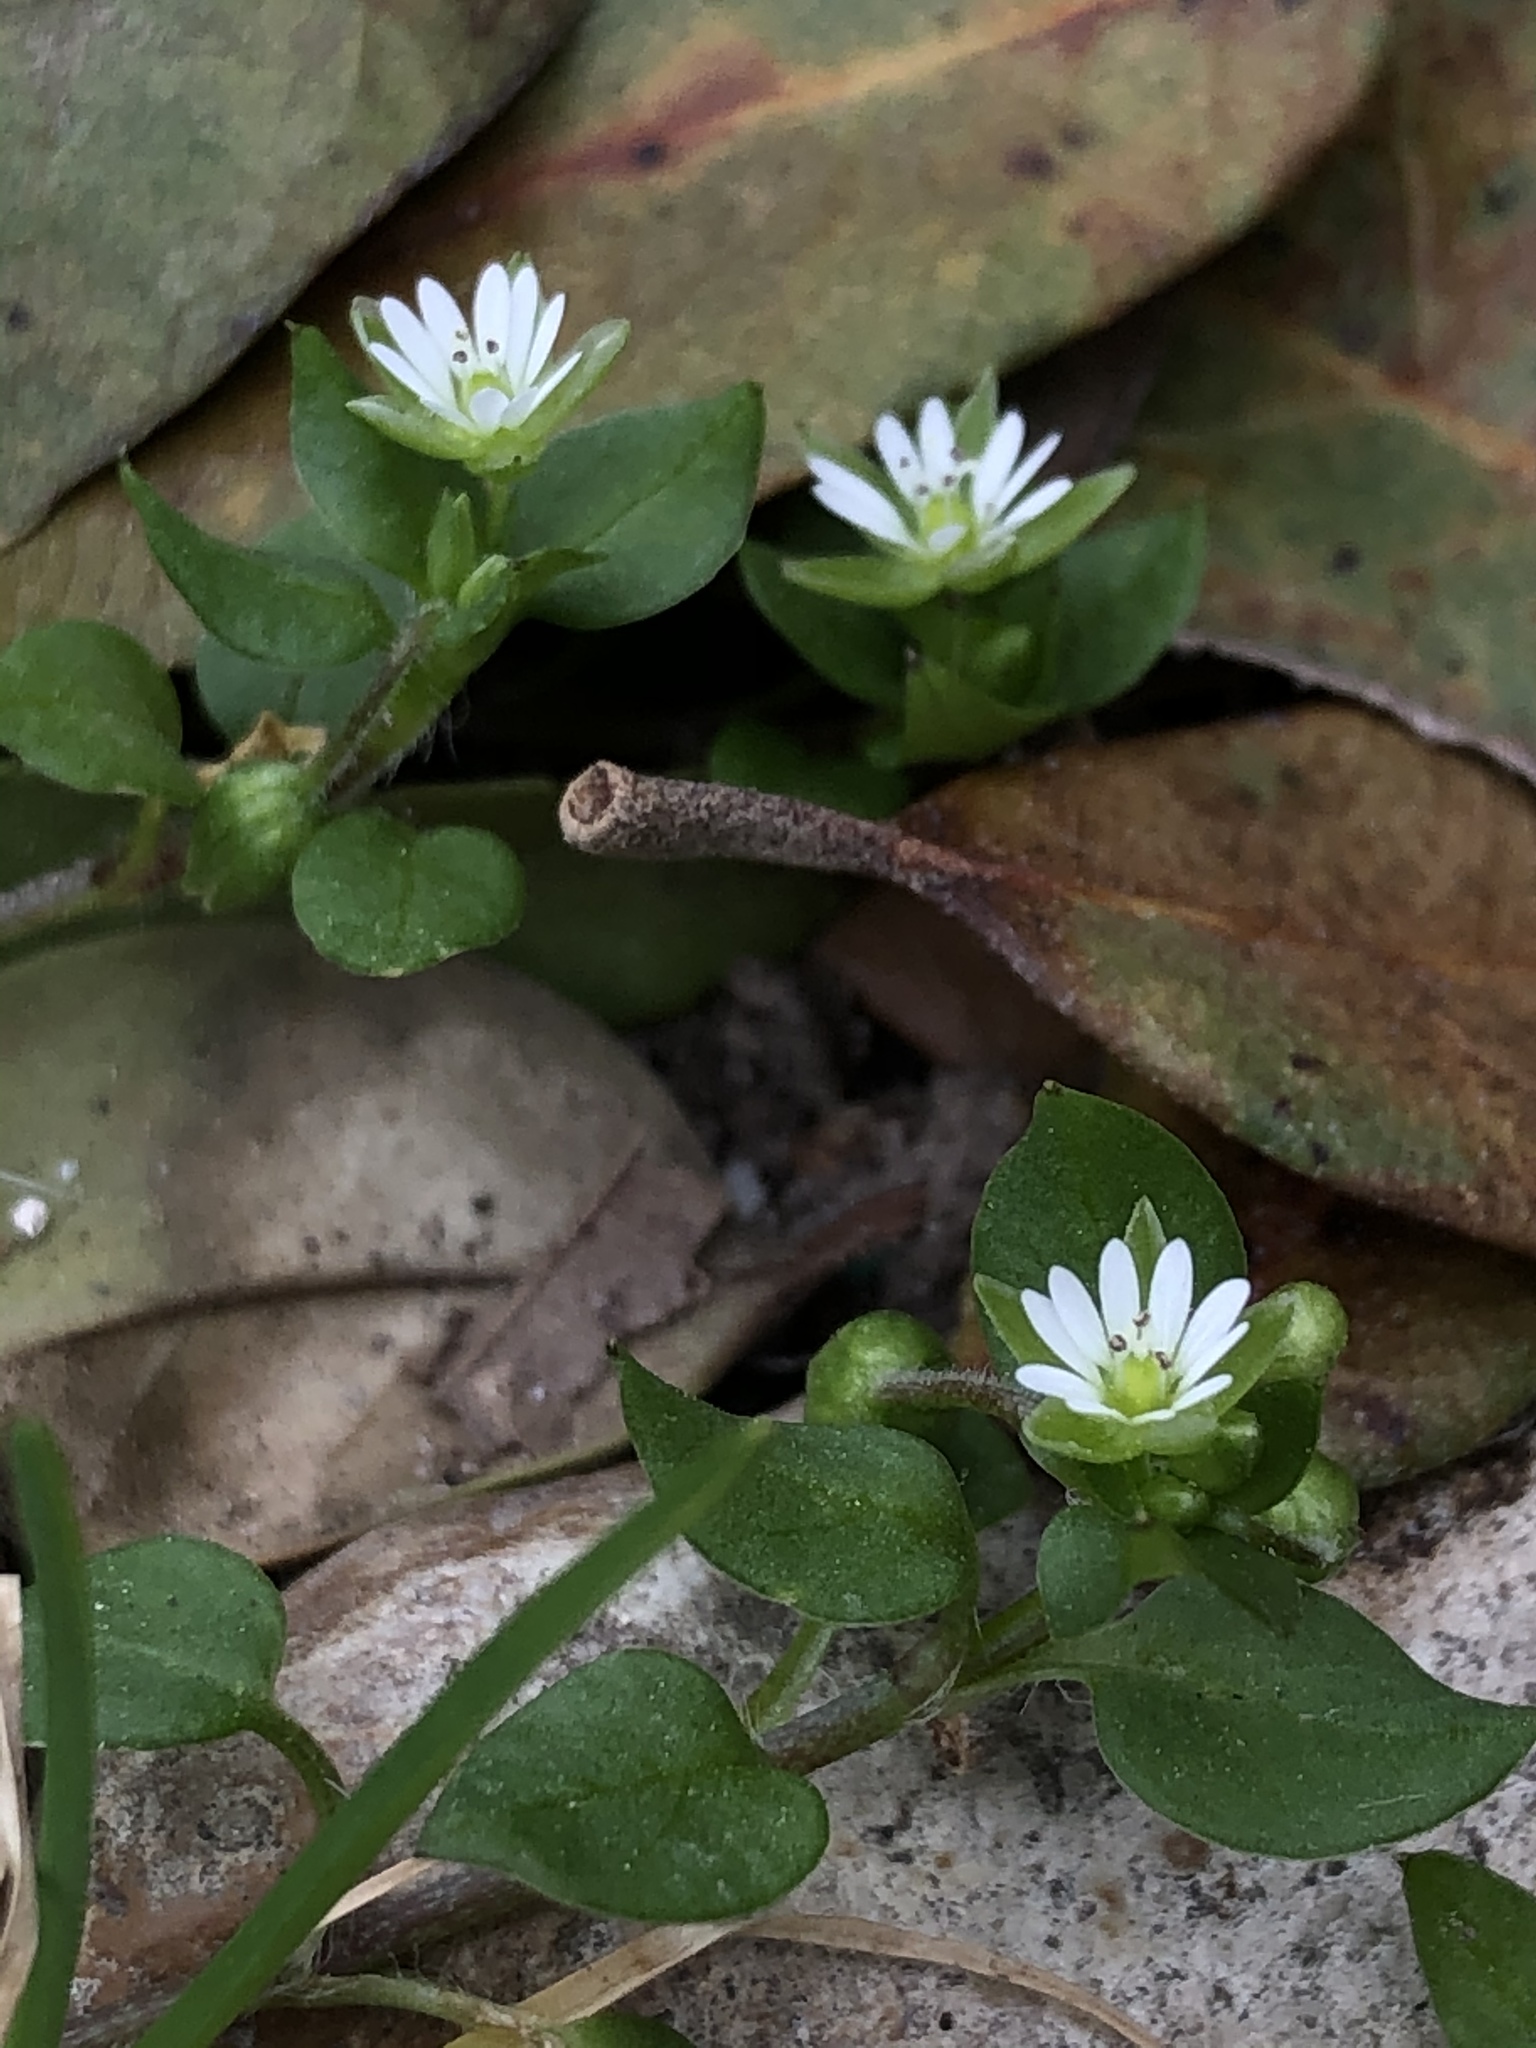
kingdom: Plantae
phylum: Tracheophyta
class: Magnoliopsida
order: Caryophyllales
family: Caryophyllaceae
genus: Stellaria
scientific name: Stellaria media
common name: Common chickweed
